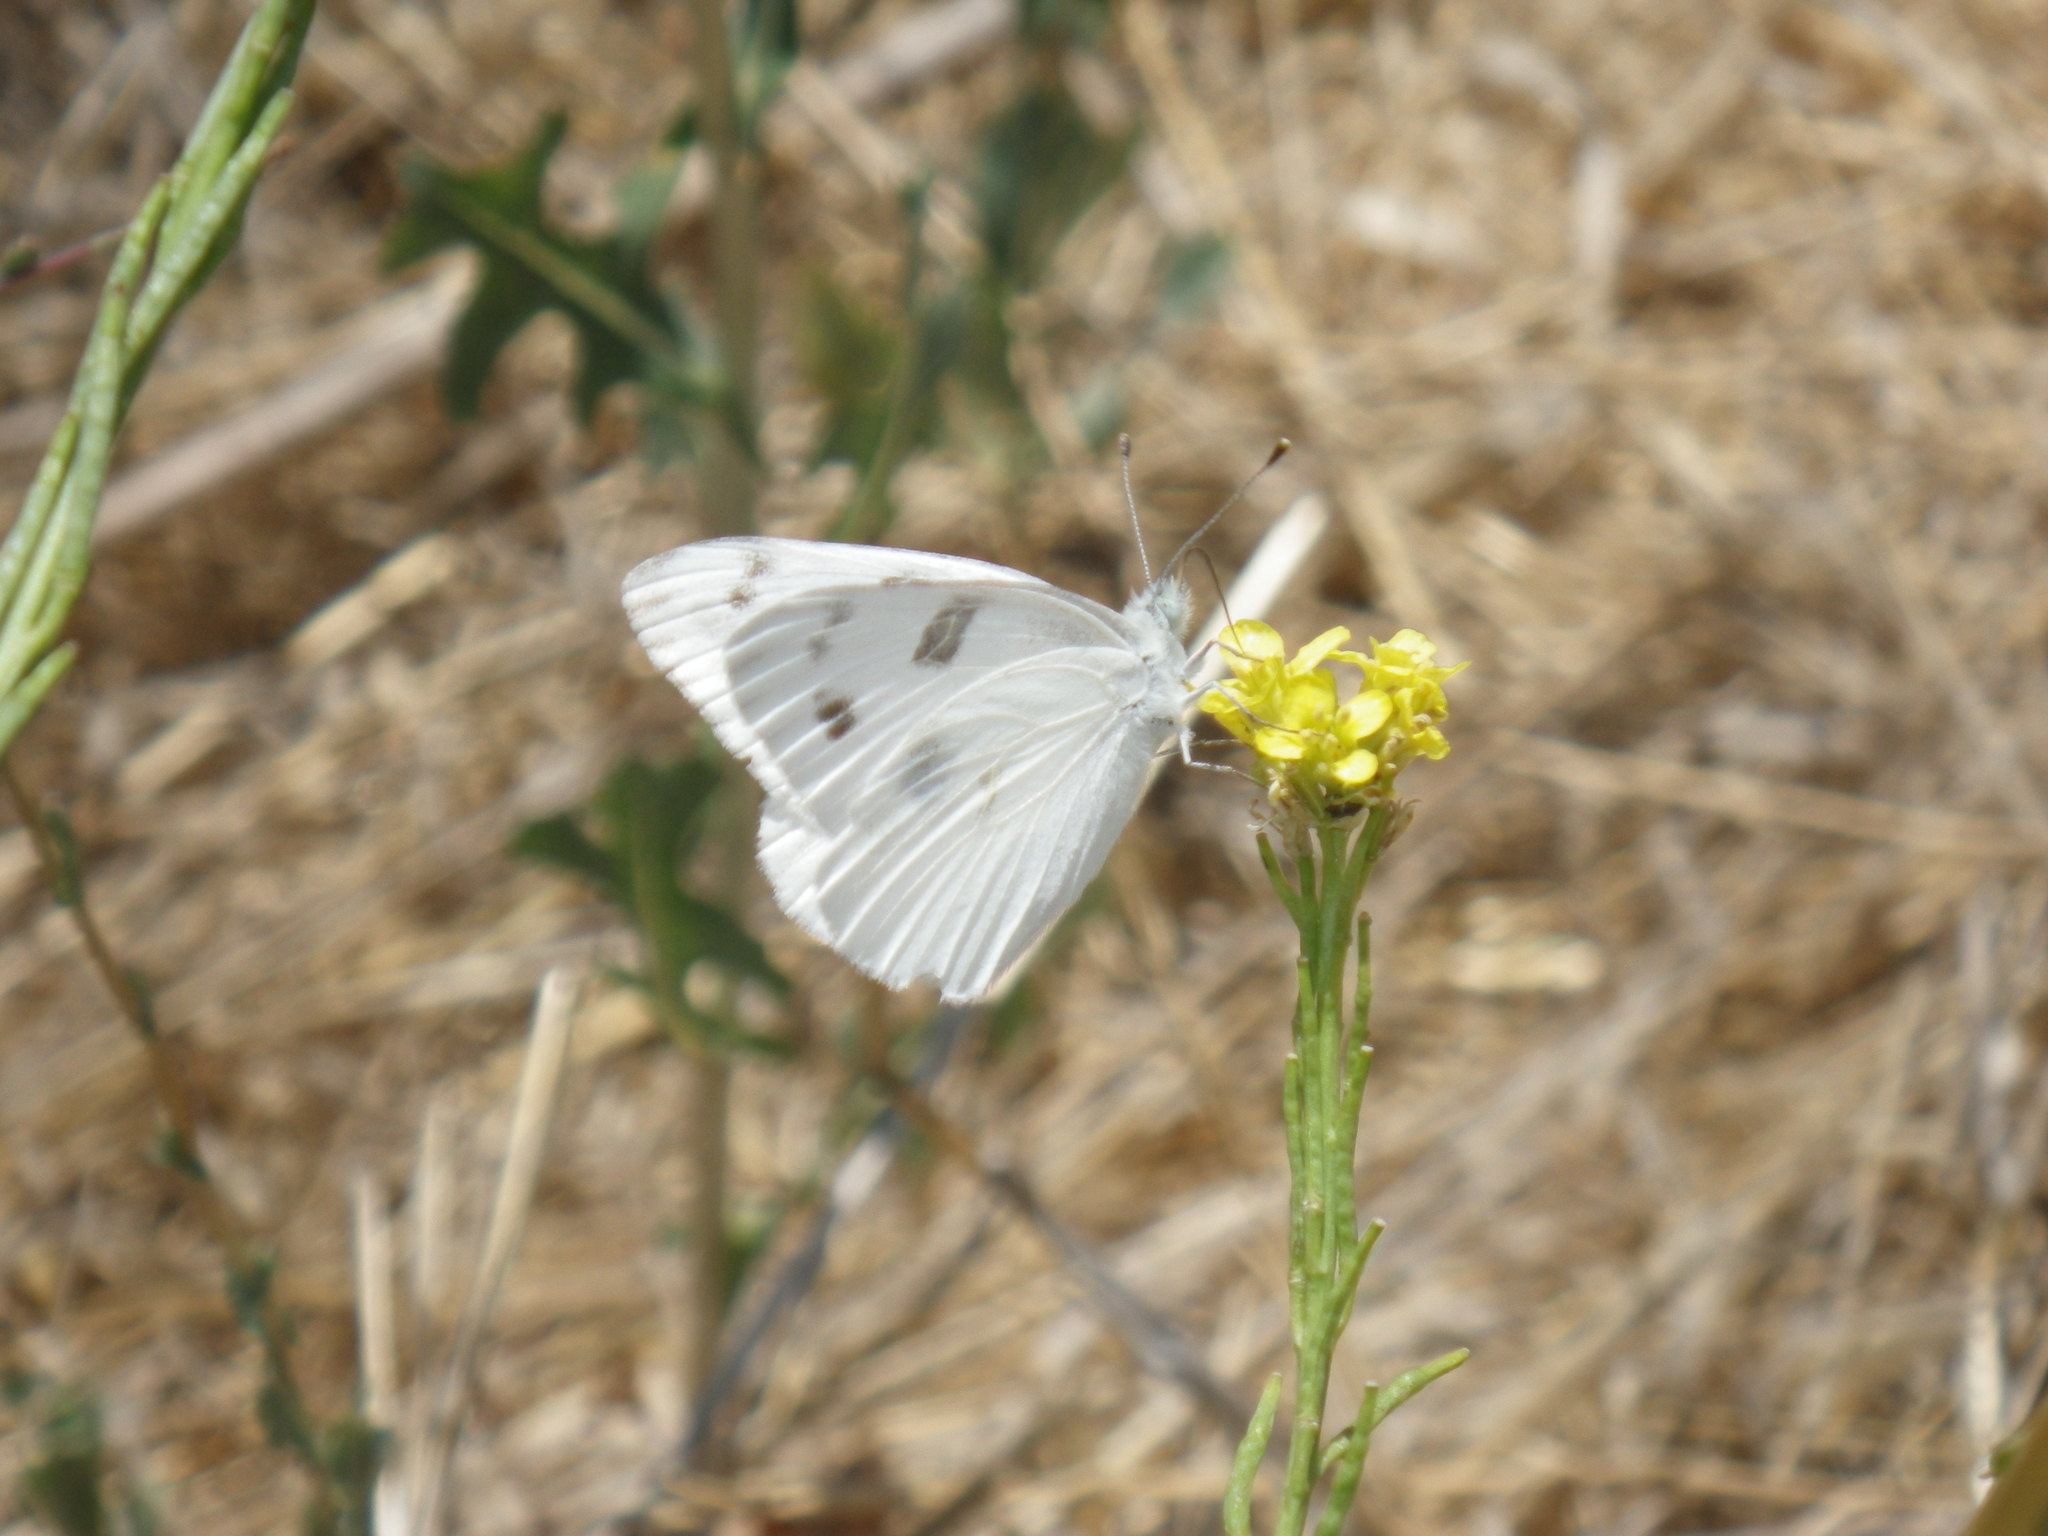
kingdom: Animalia
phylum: Arthropoda
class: Insecta
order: Lepidoptera
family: Pieridae
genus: Pontia
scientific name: Pontia protodice
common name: Checkered white
